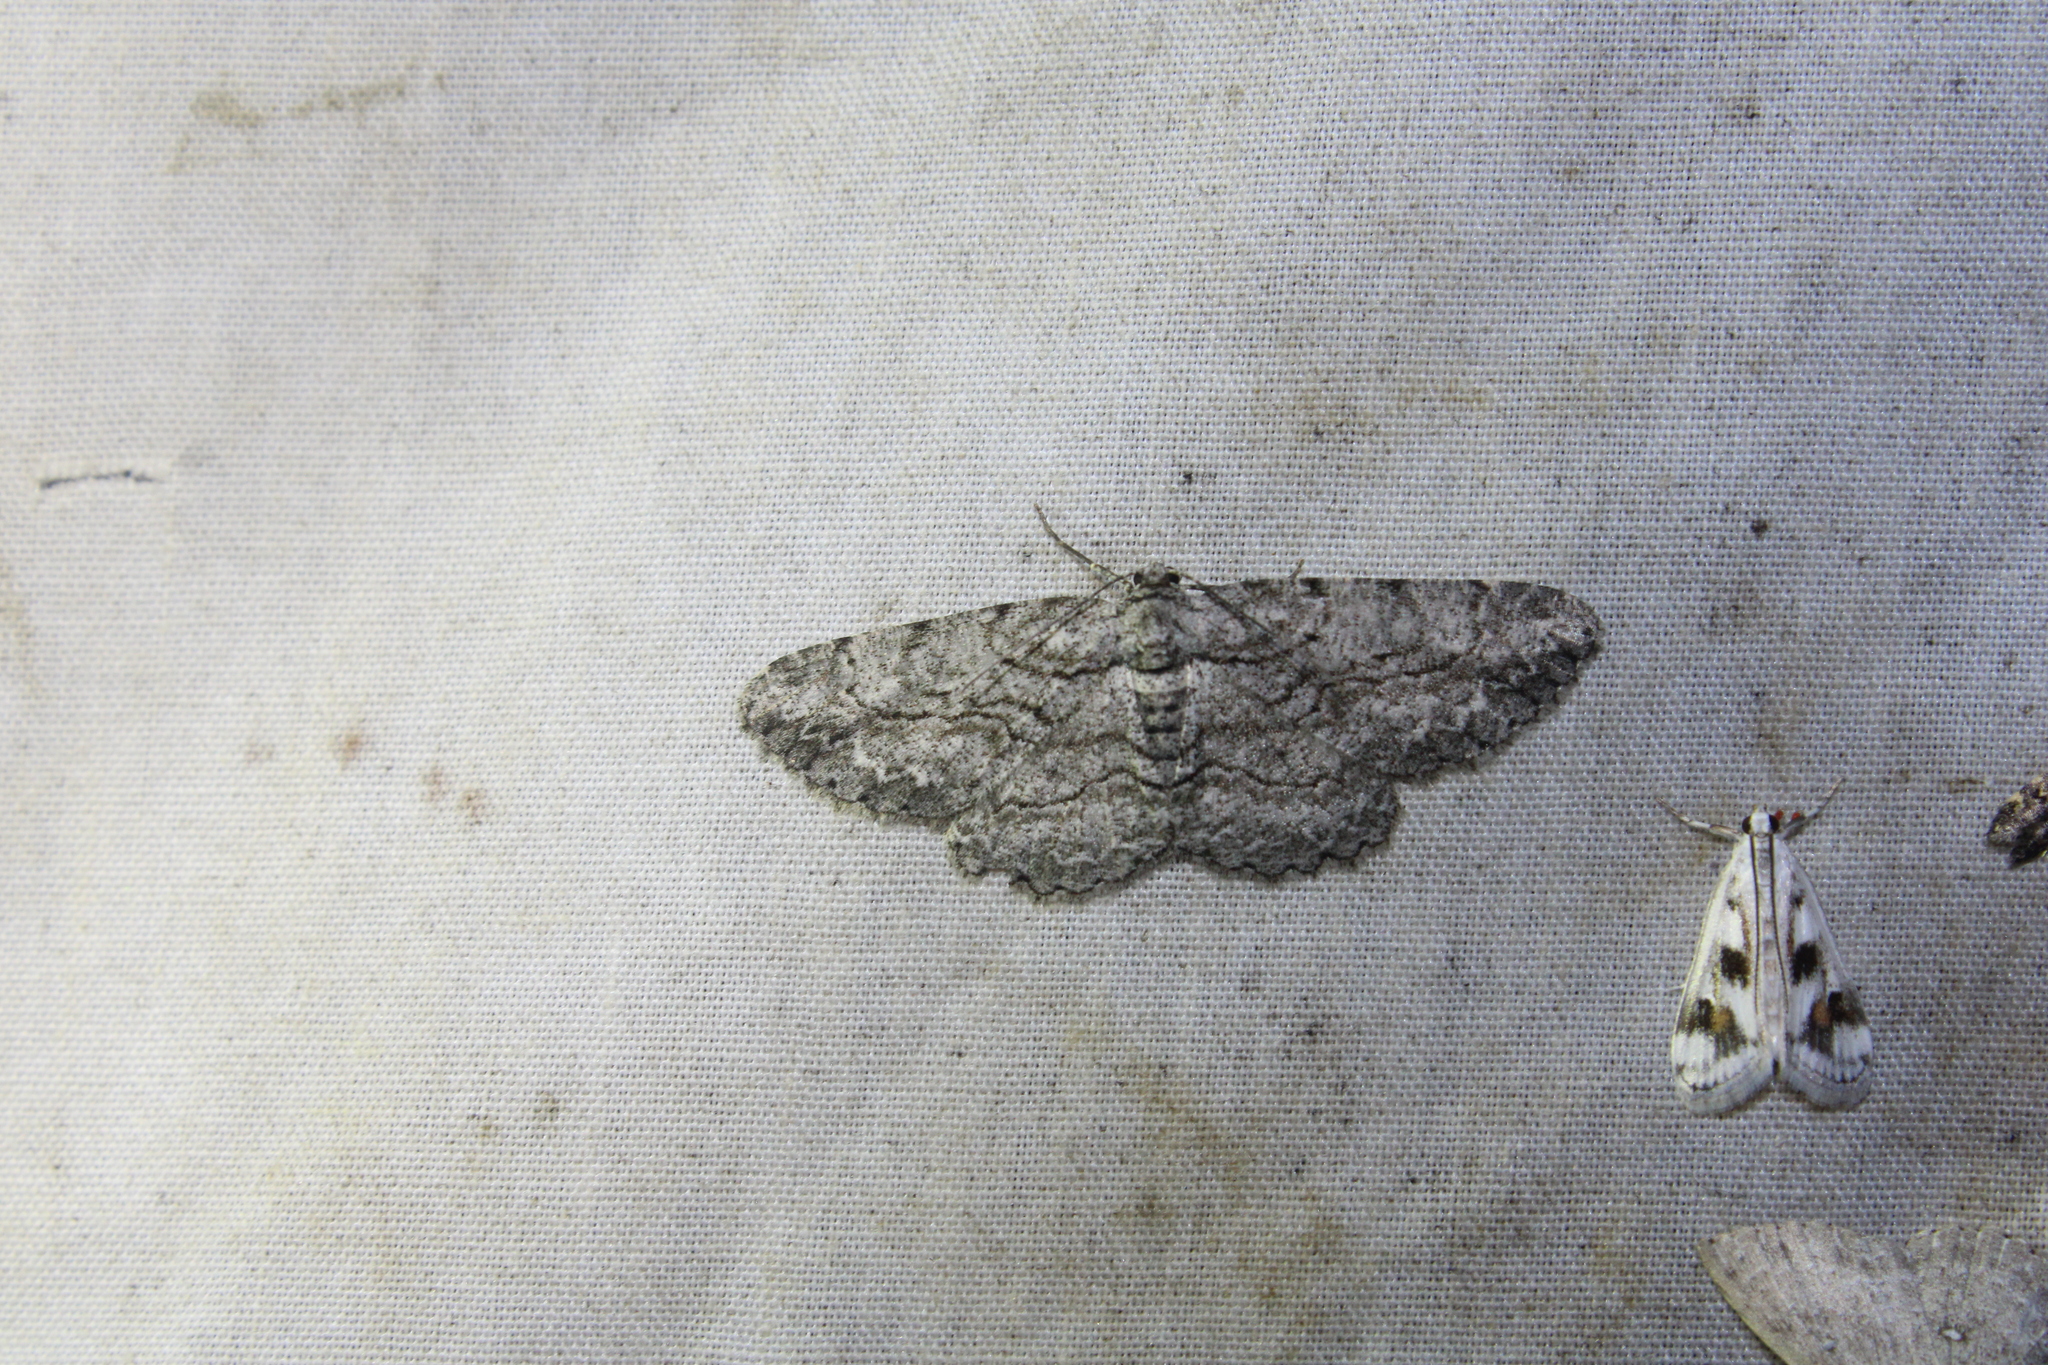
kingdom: Animalia
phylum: Arthropoda
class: Insecta
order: Lepidoptera
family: Geometridae
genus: Anavitrinella
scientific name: Anavitrinella pampinaria
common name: Common gray
